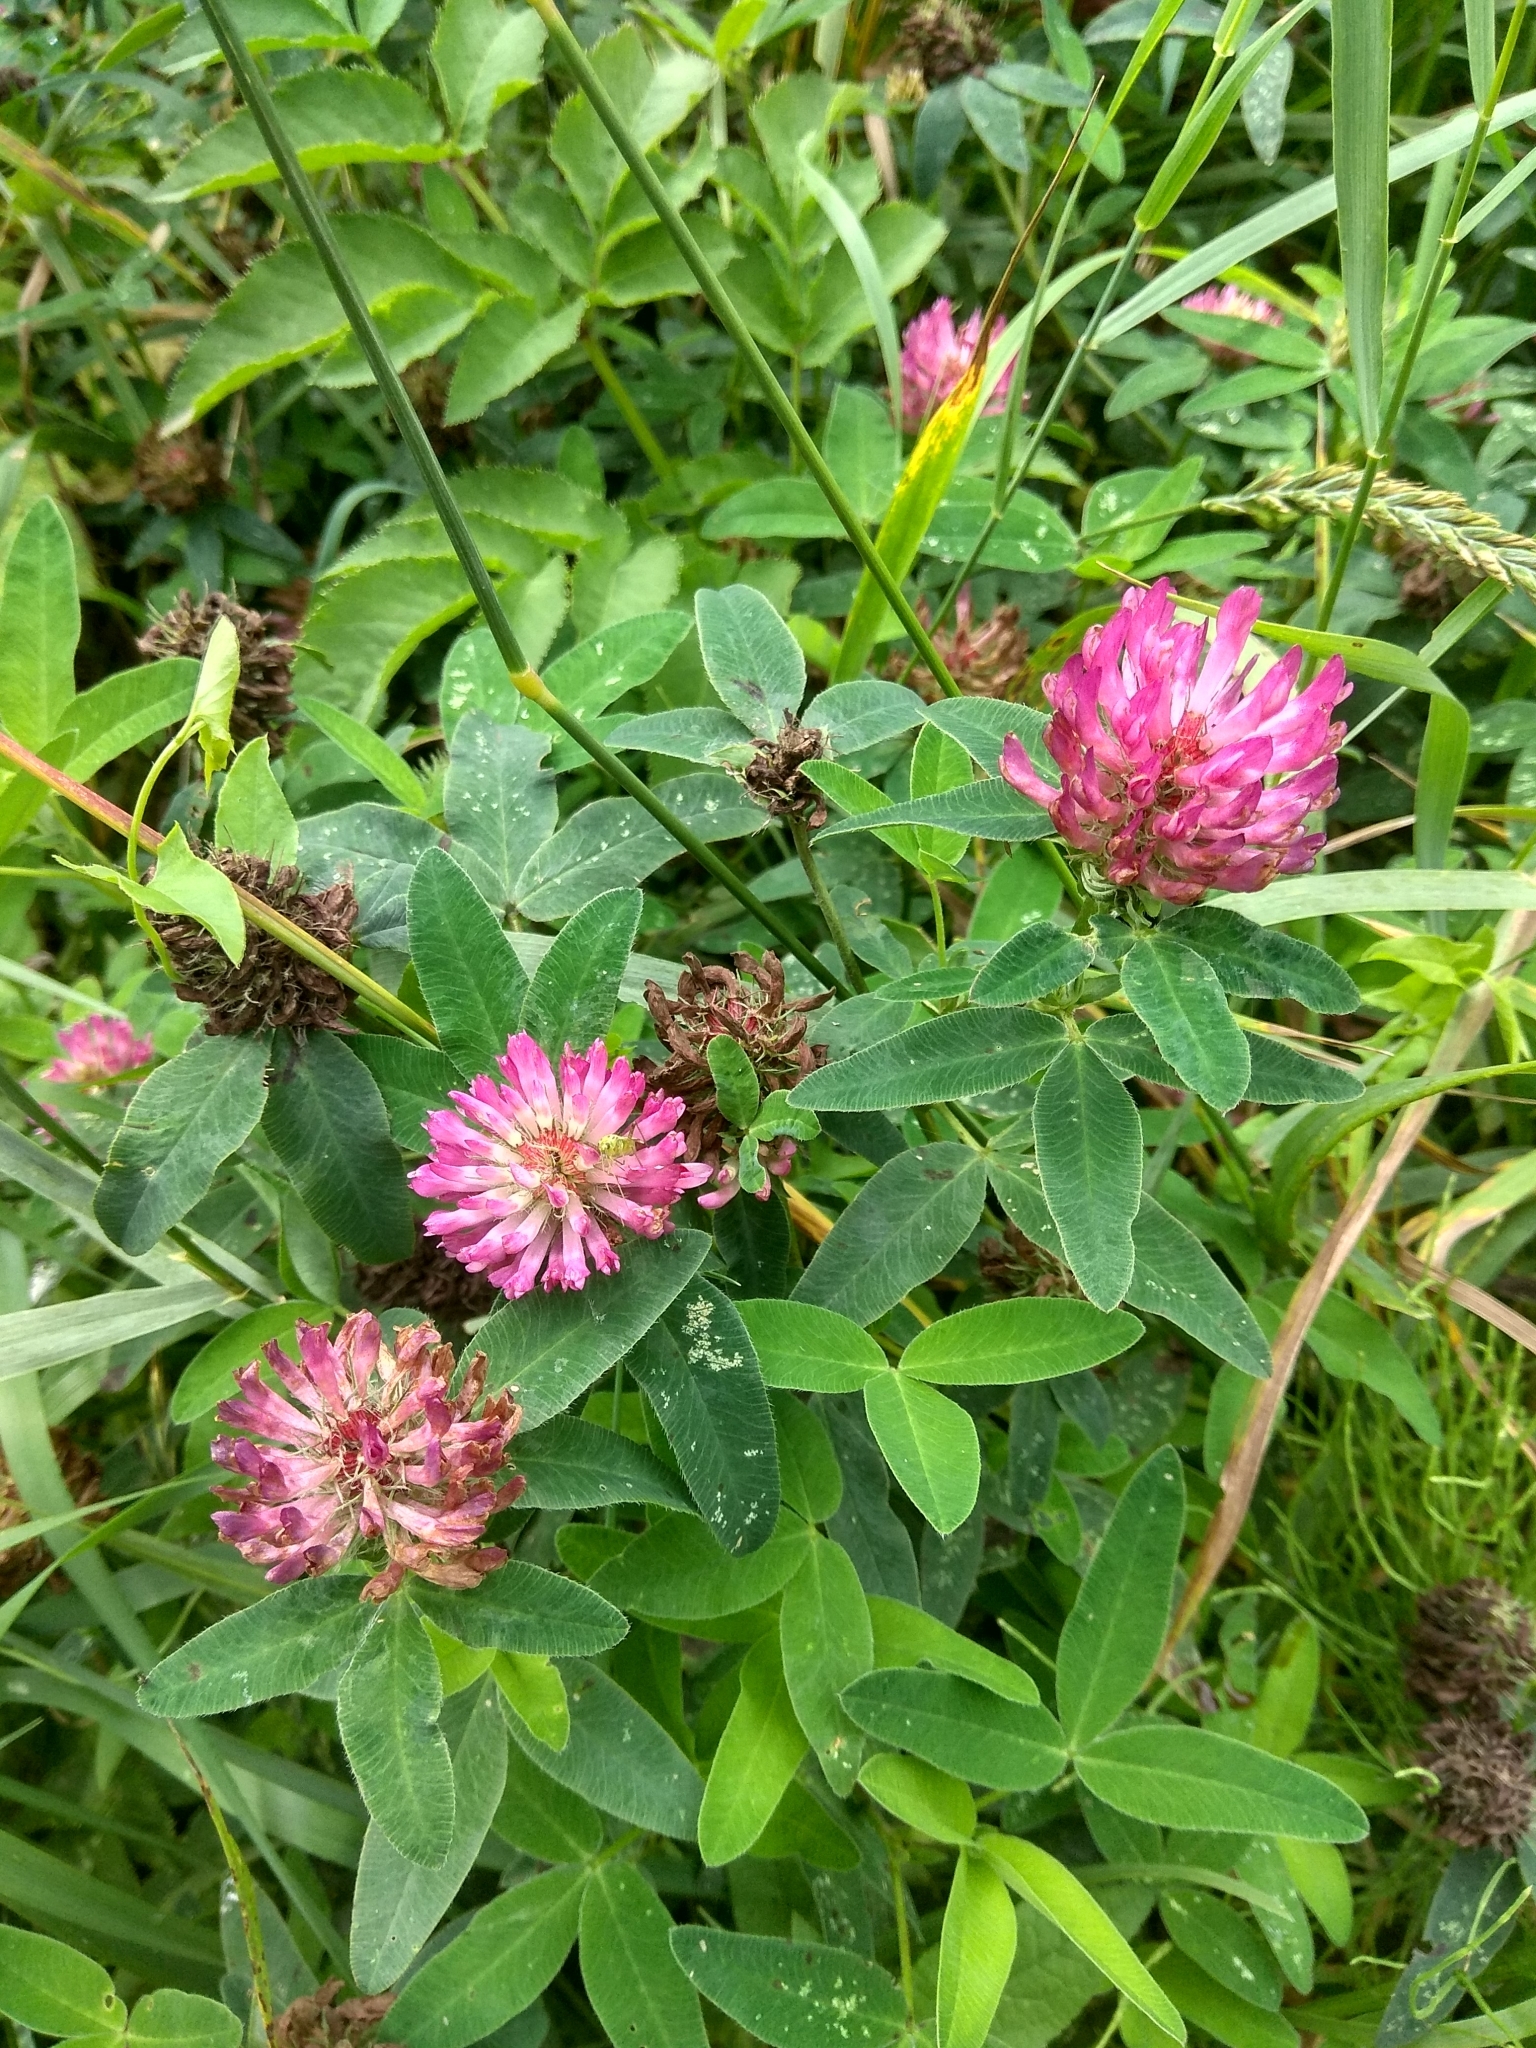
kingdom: Plantae
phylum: Tracheophyta
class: Magnoliopsida
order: Fabales
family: Fabaceae
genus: Trifolium
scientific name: Trifolium medium
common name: Zigzag clover
